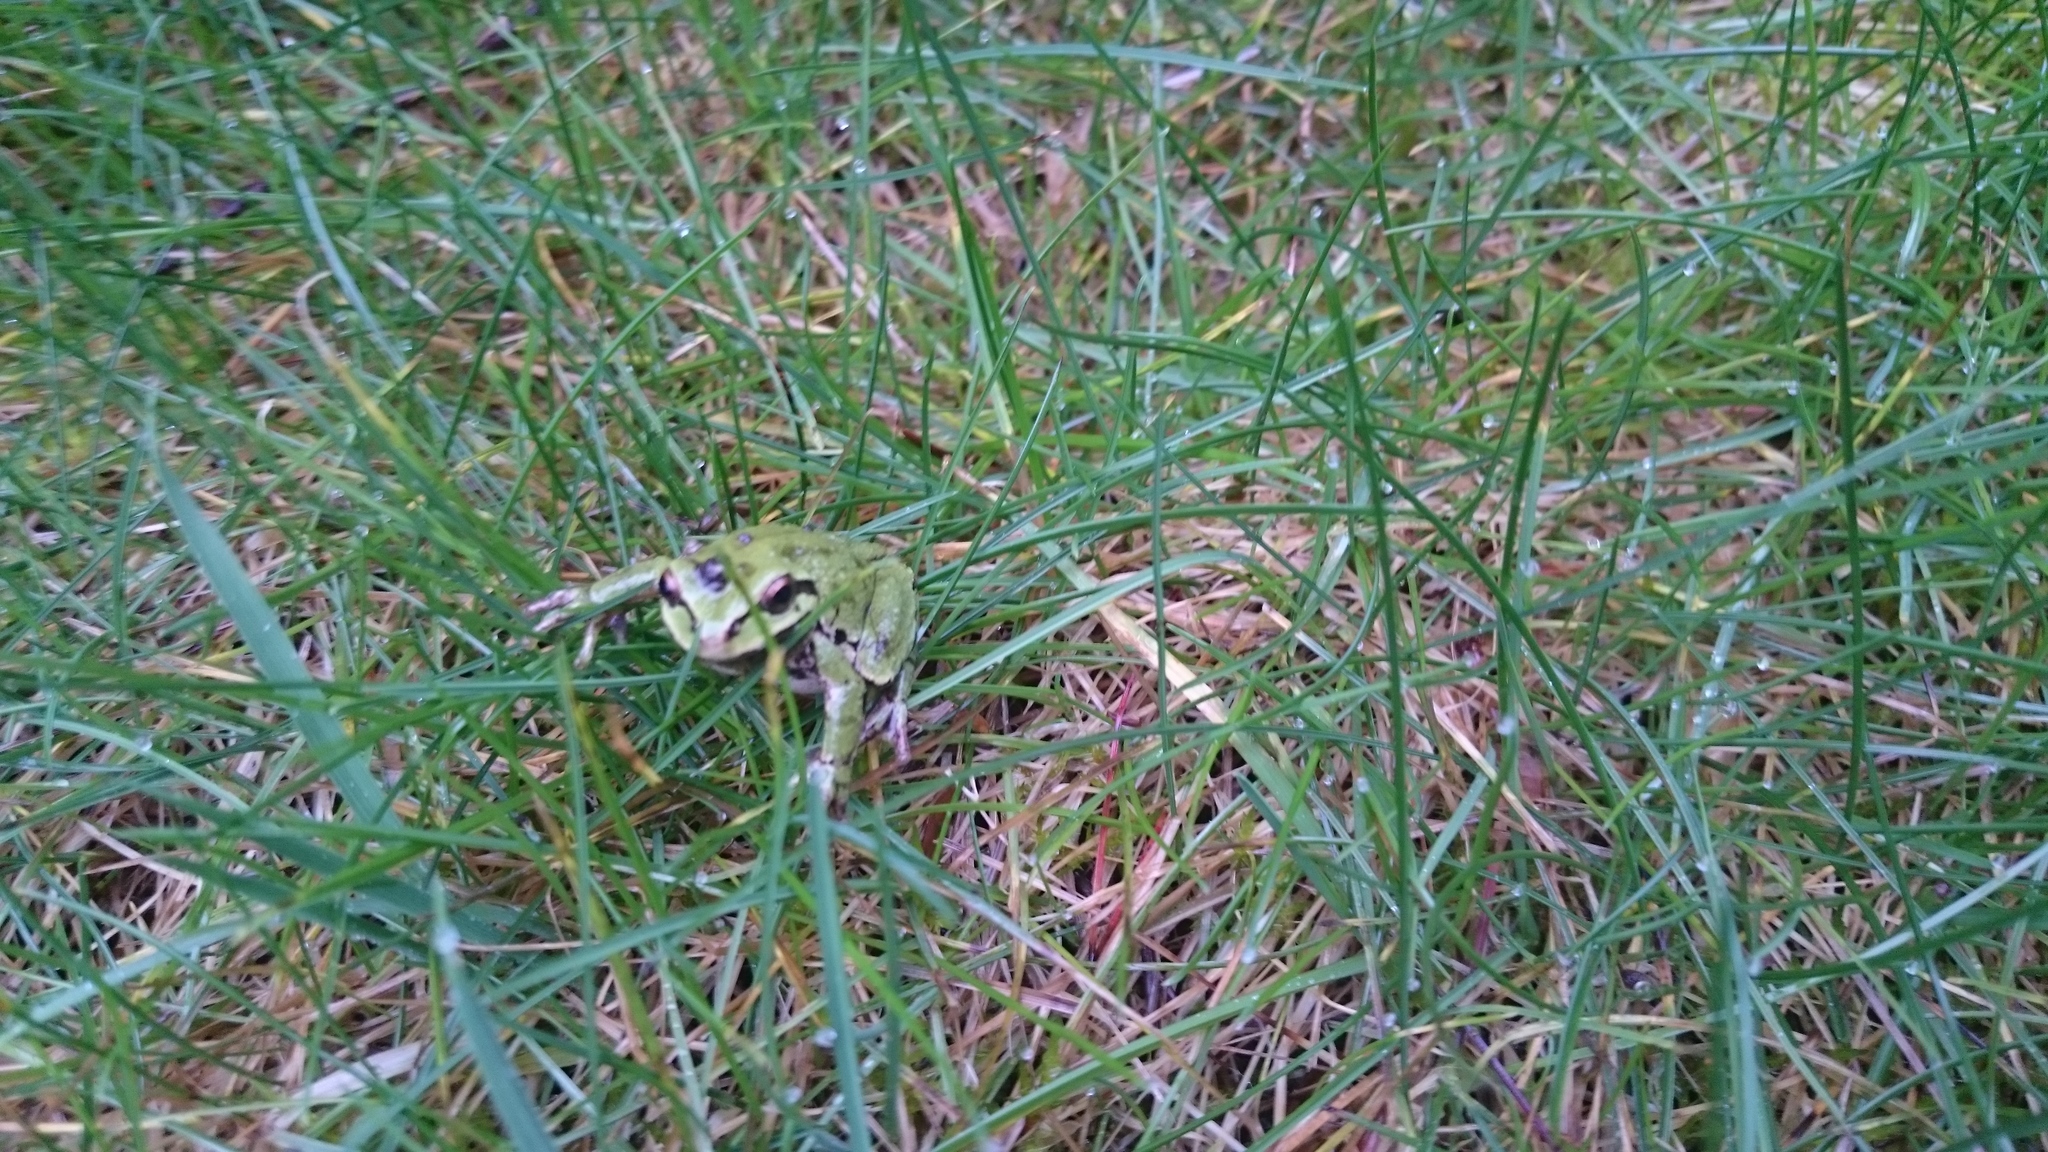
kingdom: Animalia
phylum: Chordata
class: Amphibia
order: Anura
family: Hylidae
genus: Pseudacris
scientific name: Pseudacris regilla
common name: Pacific chorus frog
